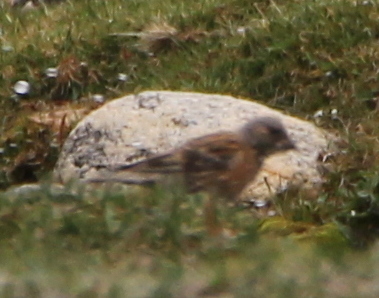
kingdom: Animalia
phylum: Chordata
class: Aves
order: Passeriformes
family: Prunellidae
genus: Prunella
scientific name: Prunella himalayana
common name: Altai accentor
